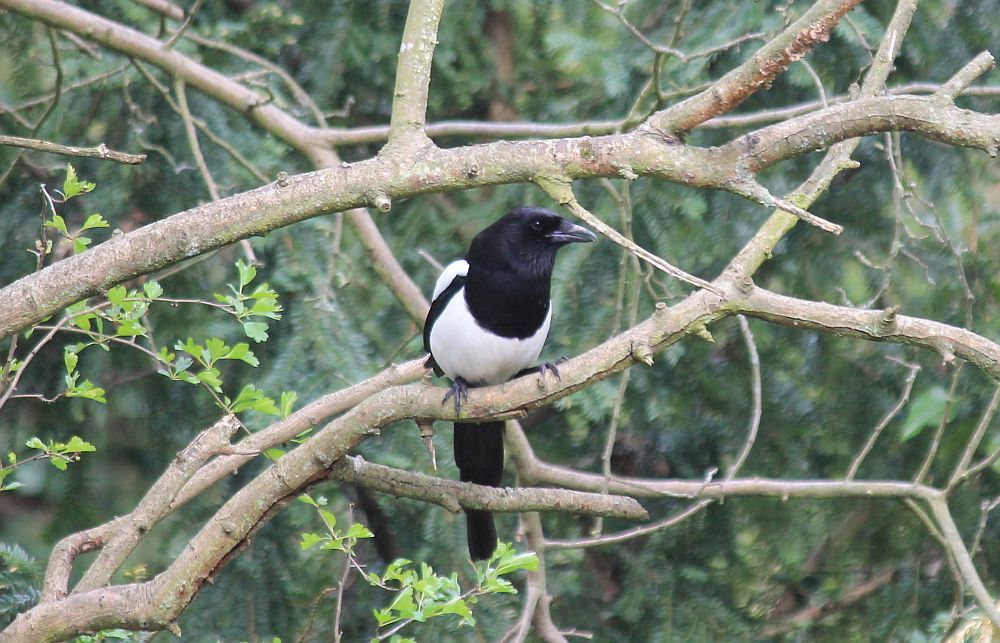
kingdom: Animalia
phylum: Chordata
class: Aves
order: Passeriformes
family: Corvidae
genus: Pica
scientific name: Pica pica
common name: Eurasian magpie
